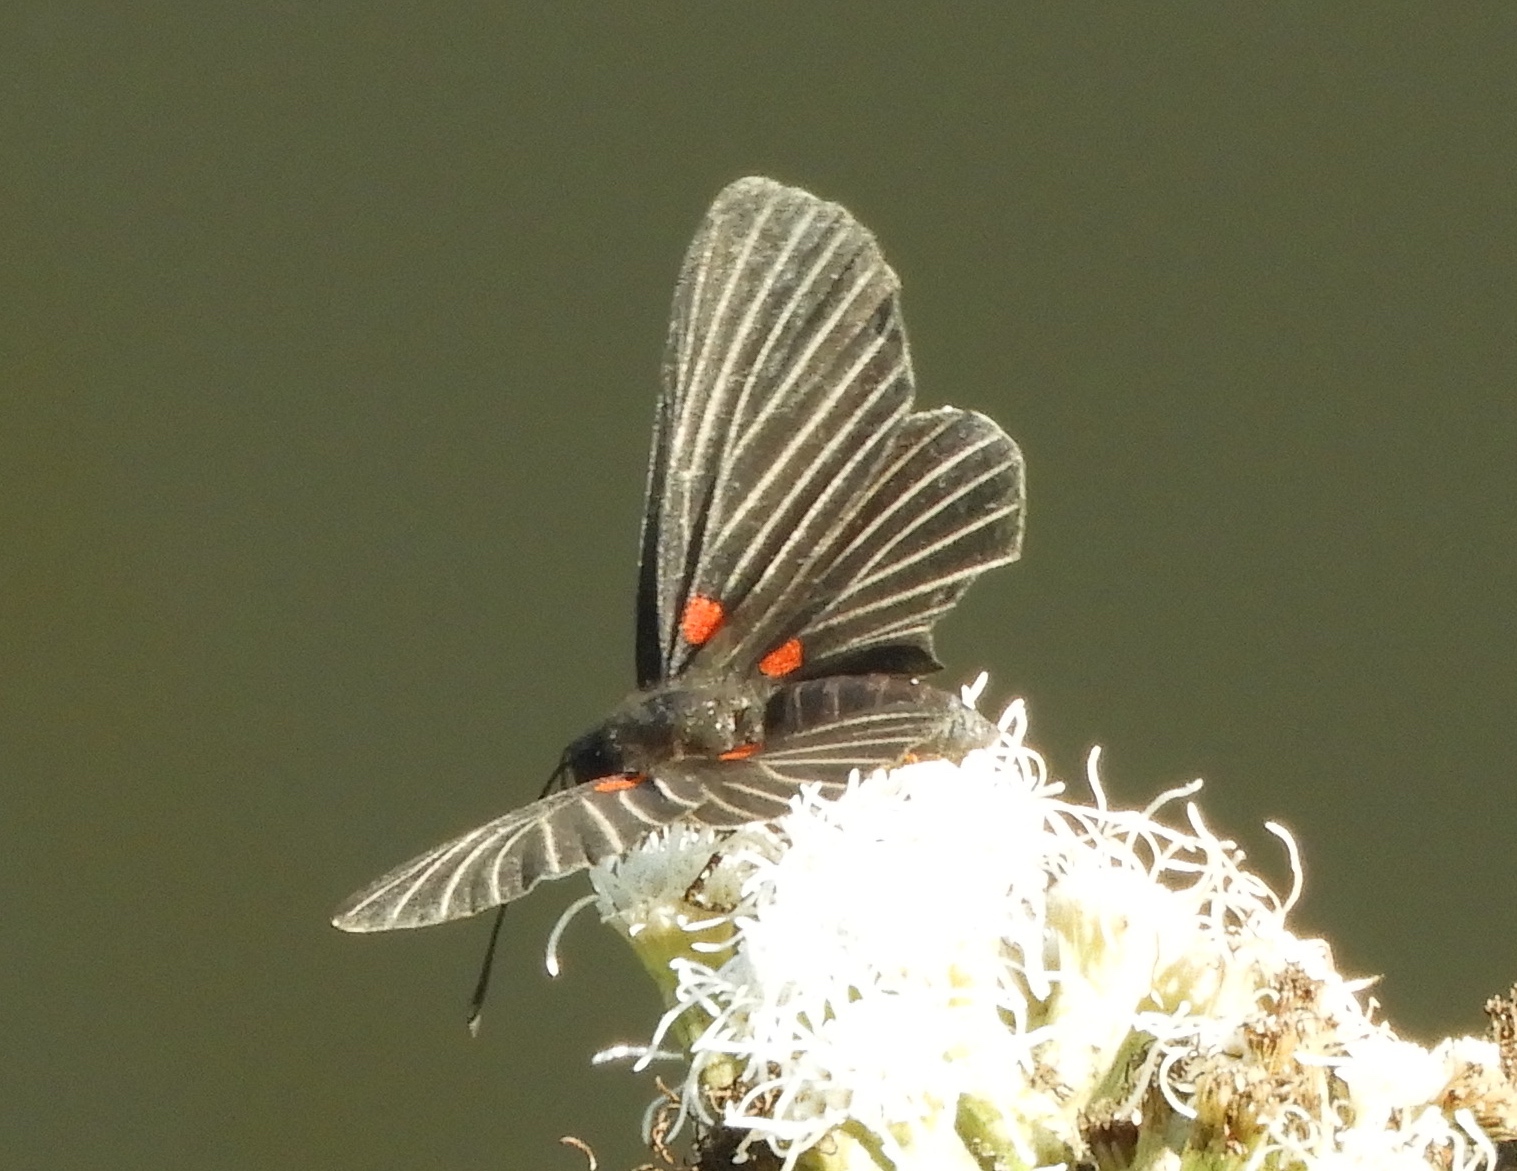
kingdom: Animalia
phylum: Arthropoda
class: Insecta
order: Lepidoptera
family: Lycaenidae
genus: Melanis
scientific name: Melanis
